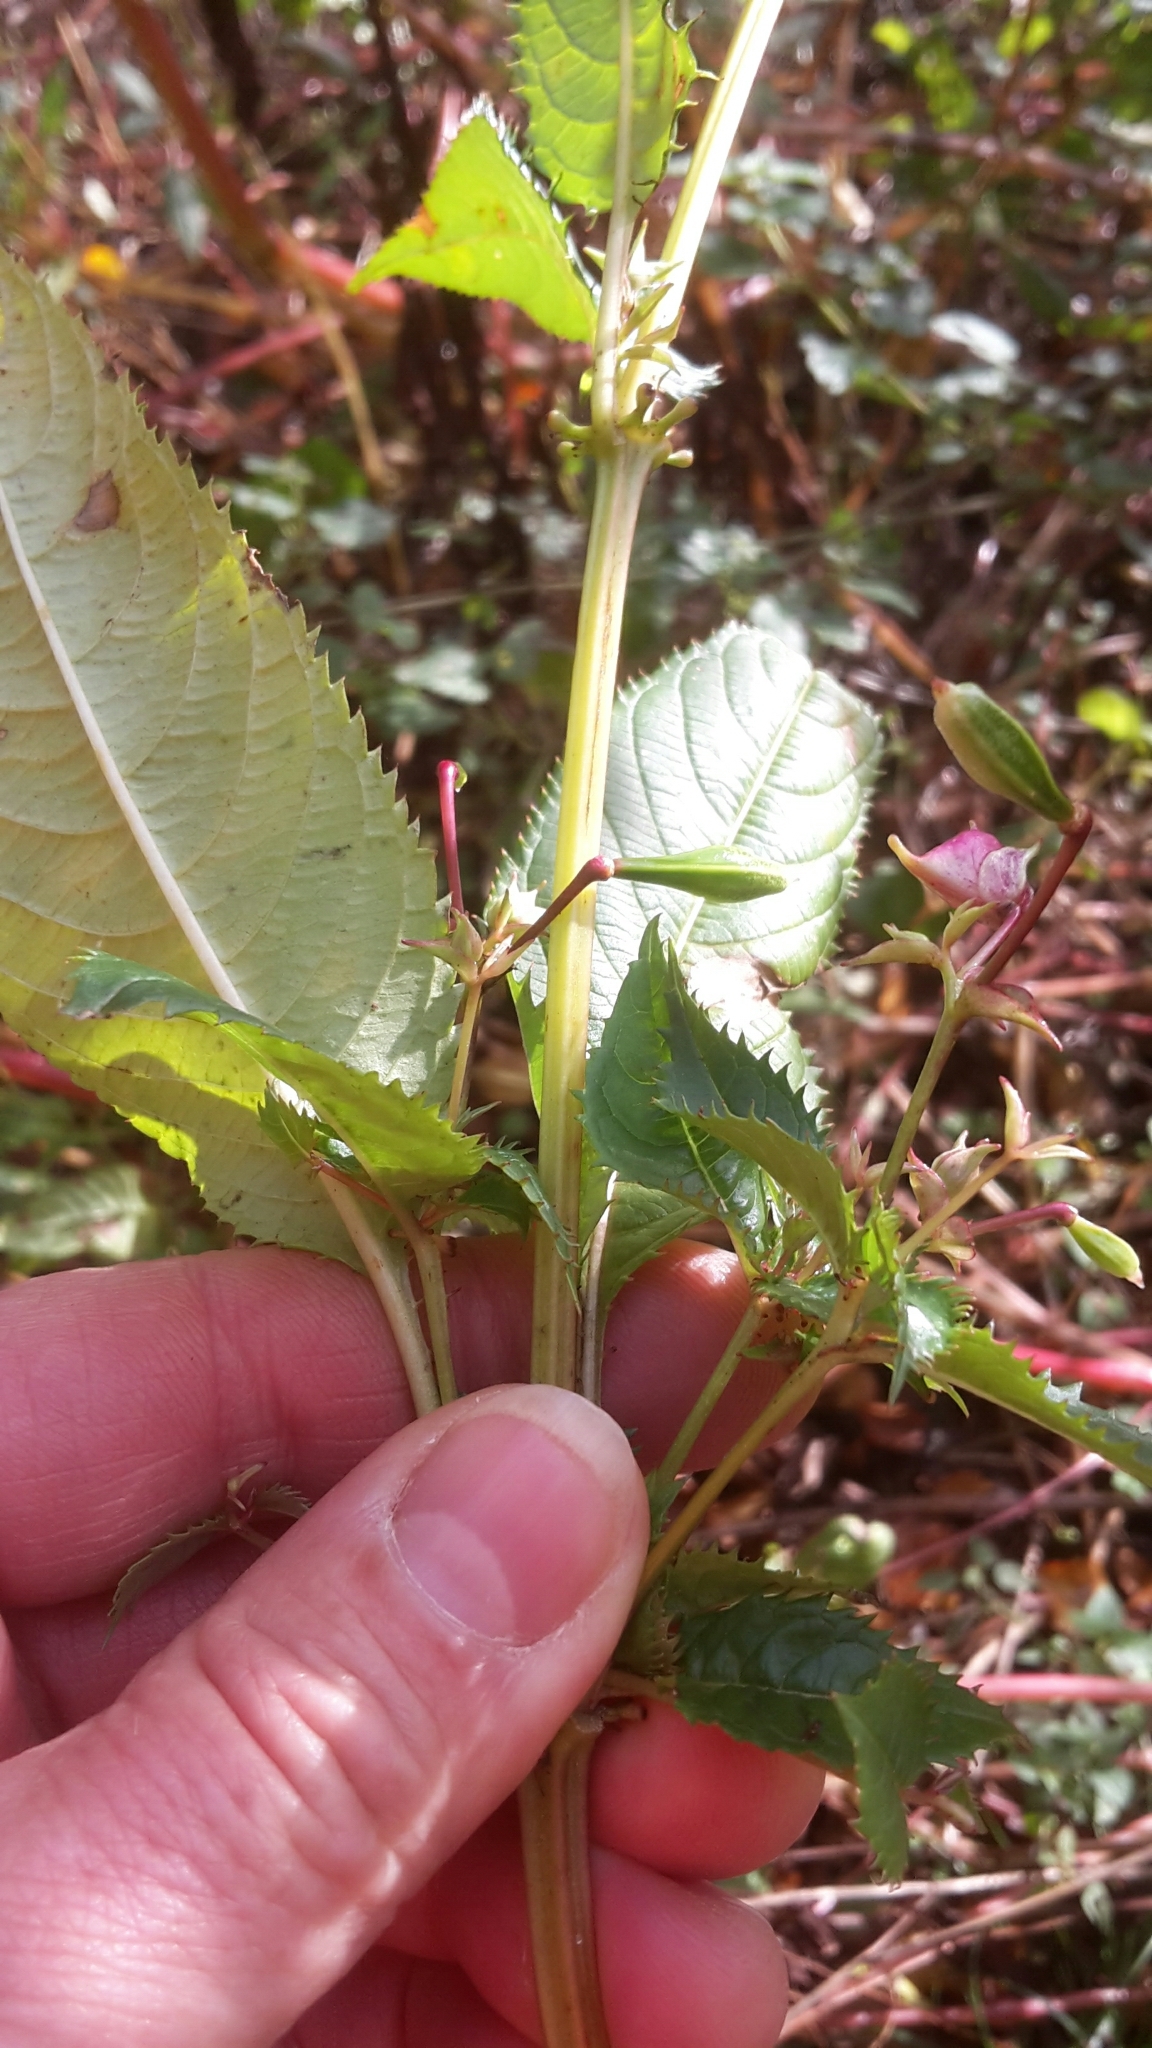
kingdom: Plantae
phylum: Tracheophyta
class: Magnoliopsida
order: Ericales
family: Balsaminaceae
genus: Impatiens
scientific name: Impatiens glandulifera
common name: Himalayan balsam
